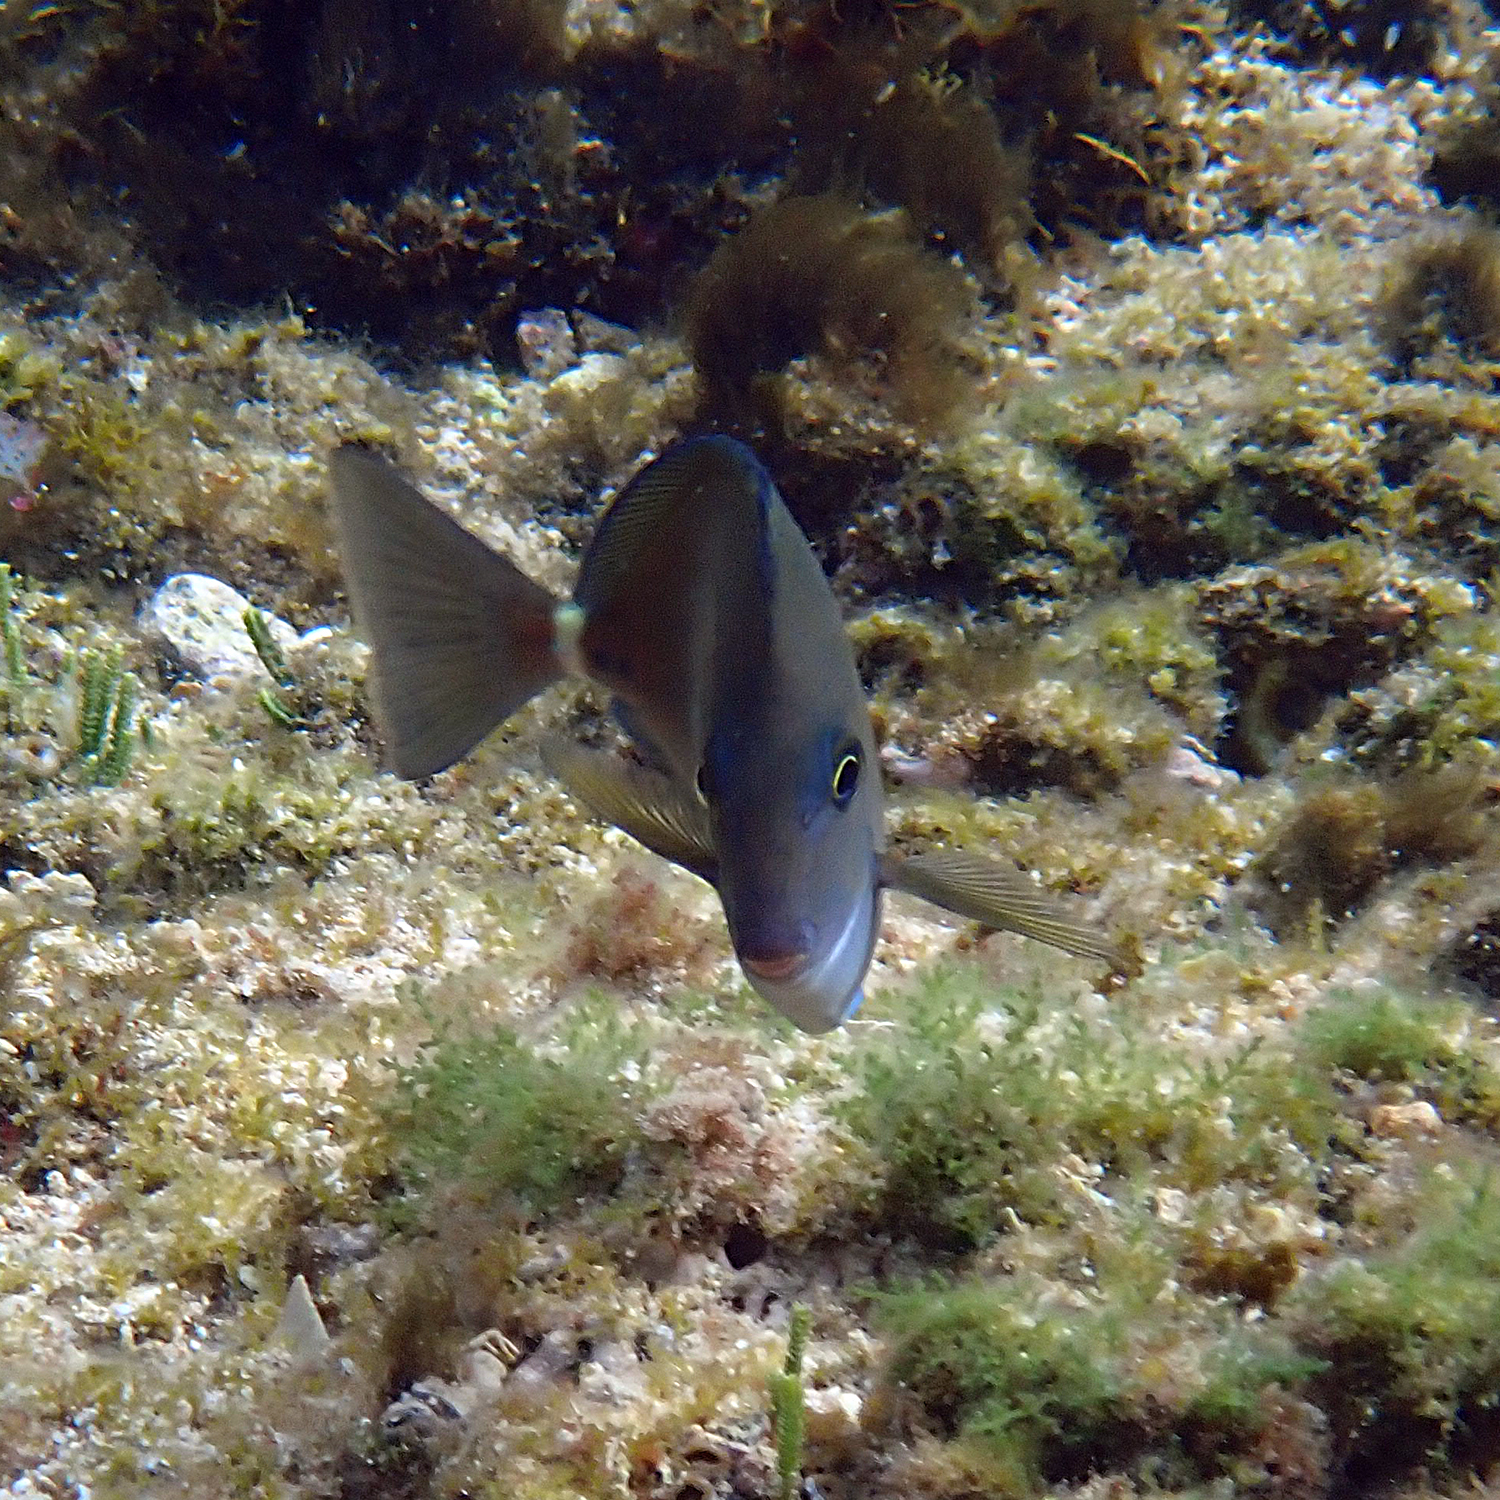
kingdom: Animalia
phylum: Chordata
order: Perciformes
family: Acanthuridae
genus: Prionurus
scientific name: Prionurus maculatus
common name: Yellowspotted sawtail
